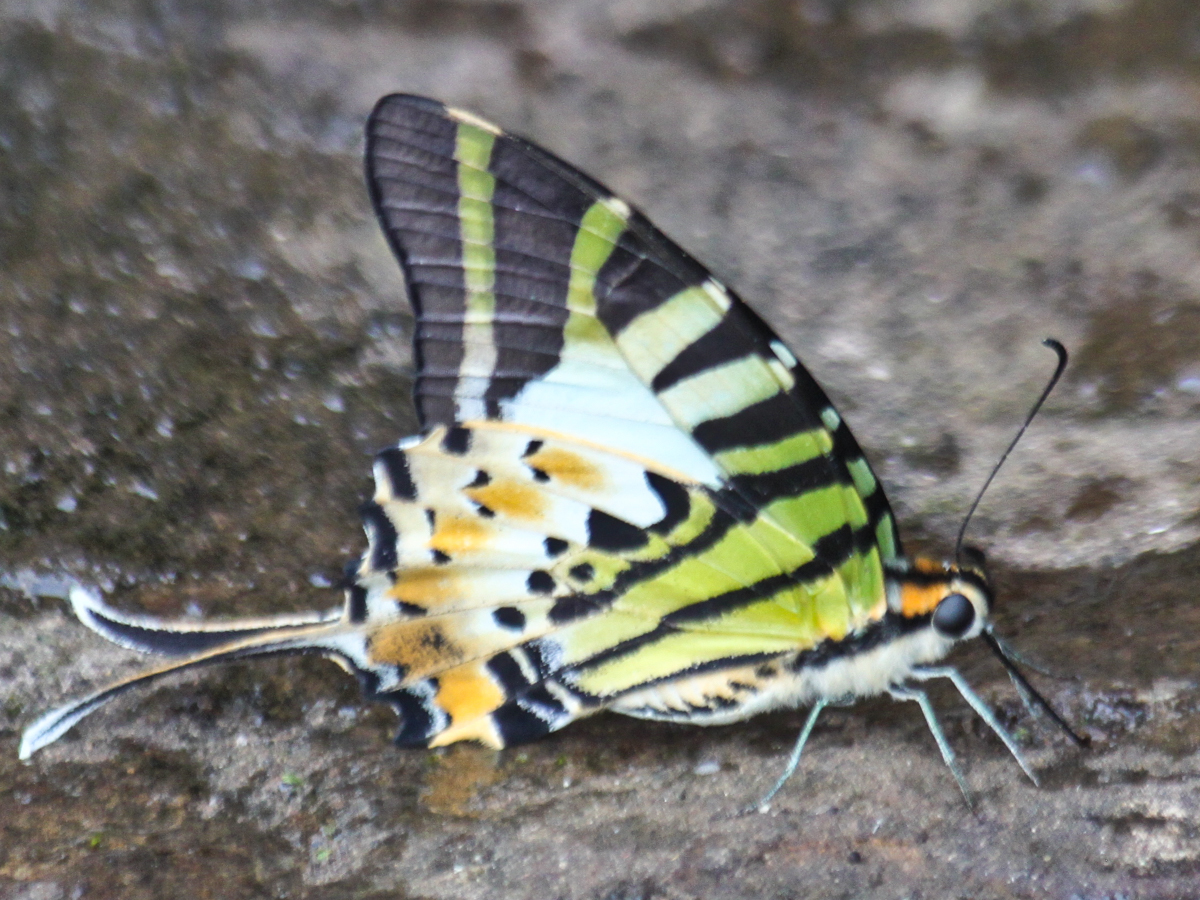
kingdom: Animalia
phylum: Arthropoda
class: Insecta
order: Lepidoptera
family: Papilionidae
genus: Graphium
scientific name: Graphium antiphates
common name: Fivebar swordtail
